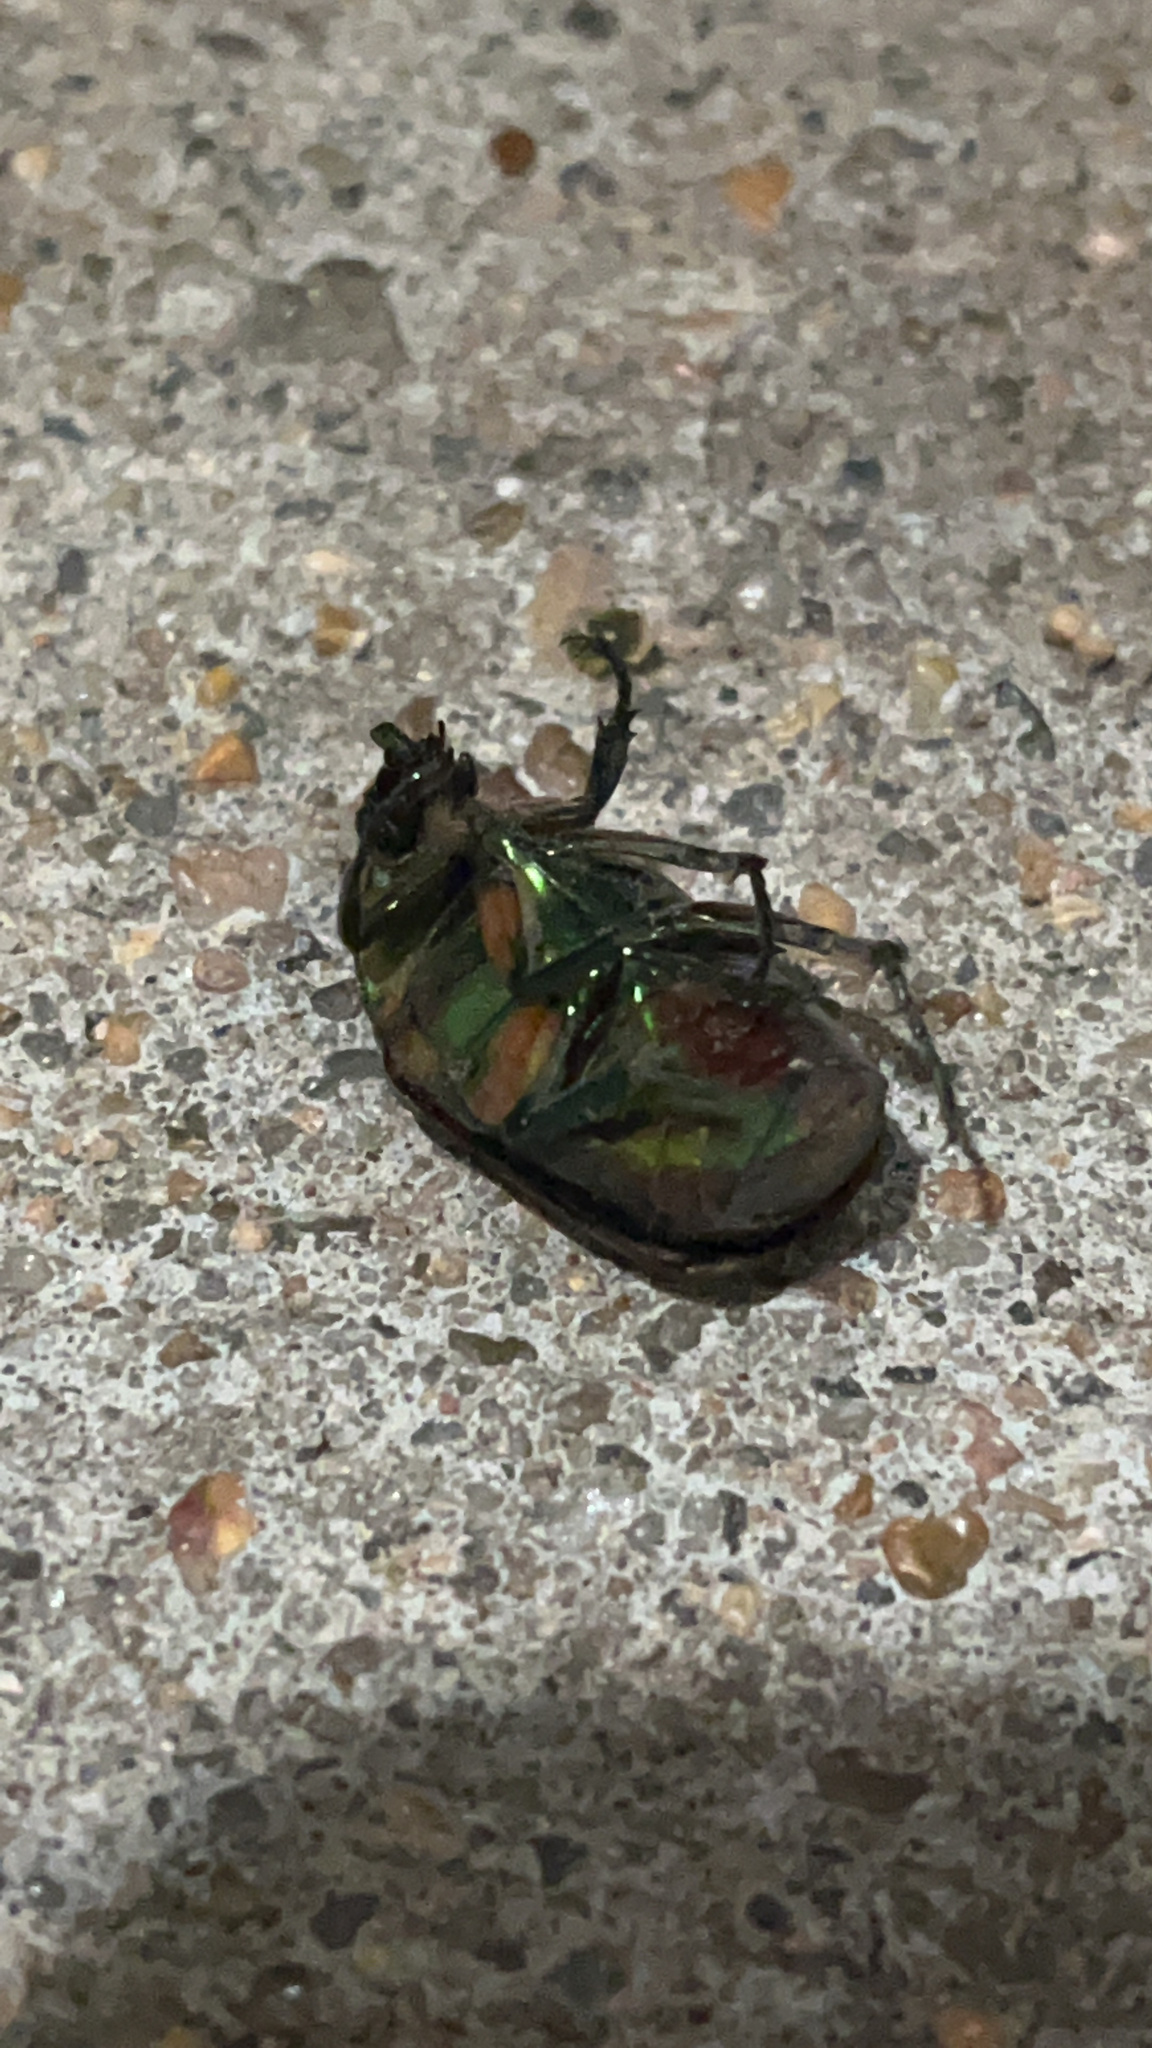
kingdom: Animalia
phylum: Arthropoda
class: Insecta
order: Coleoptera
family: Scarabaeidae
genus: Cotinis
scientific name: Cotinis nitida
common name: Common green june beetle
